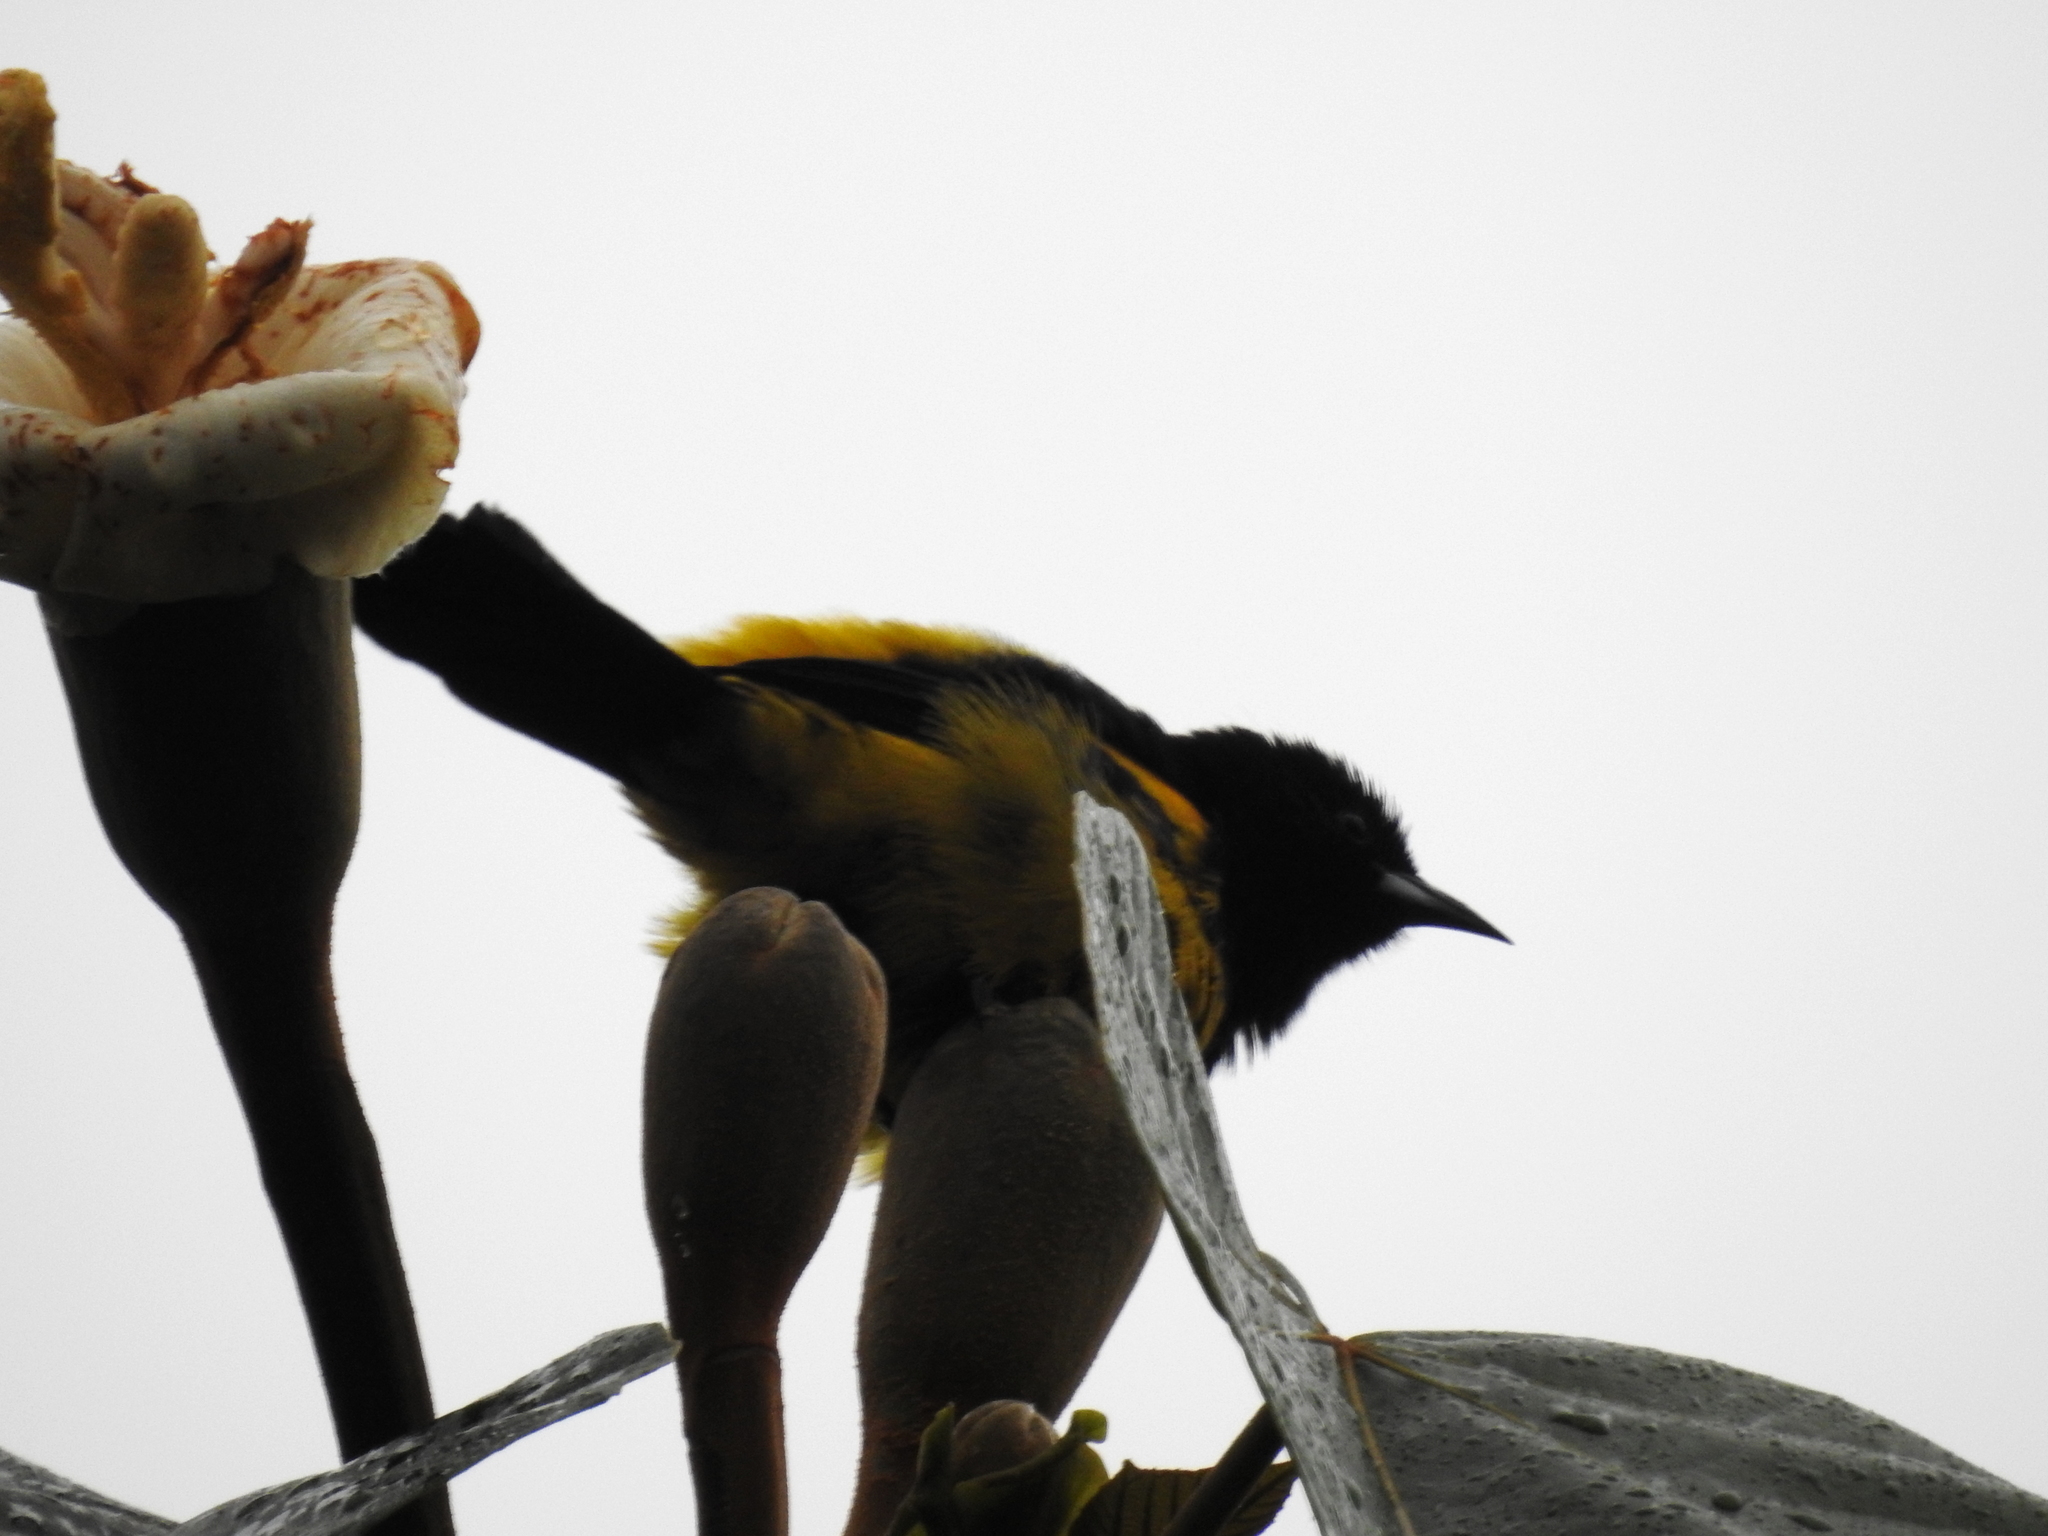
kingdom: Animalia
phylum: Chordata
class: Aves
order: Passeriformes
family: Icteridae
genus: Icterus
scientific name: Icterus prosthemelas
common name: Black-cowled oriole
